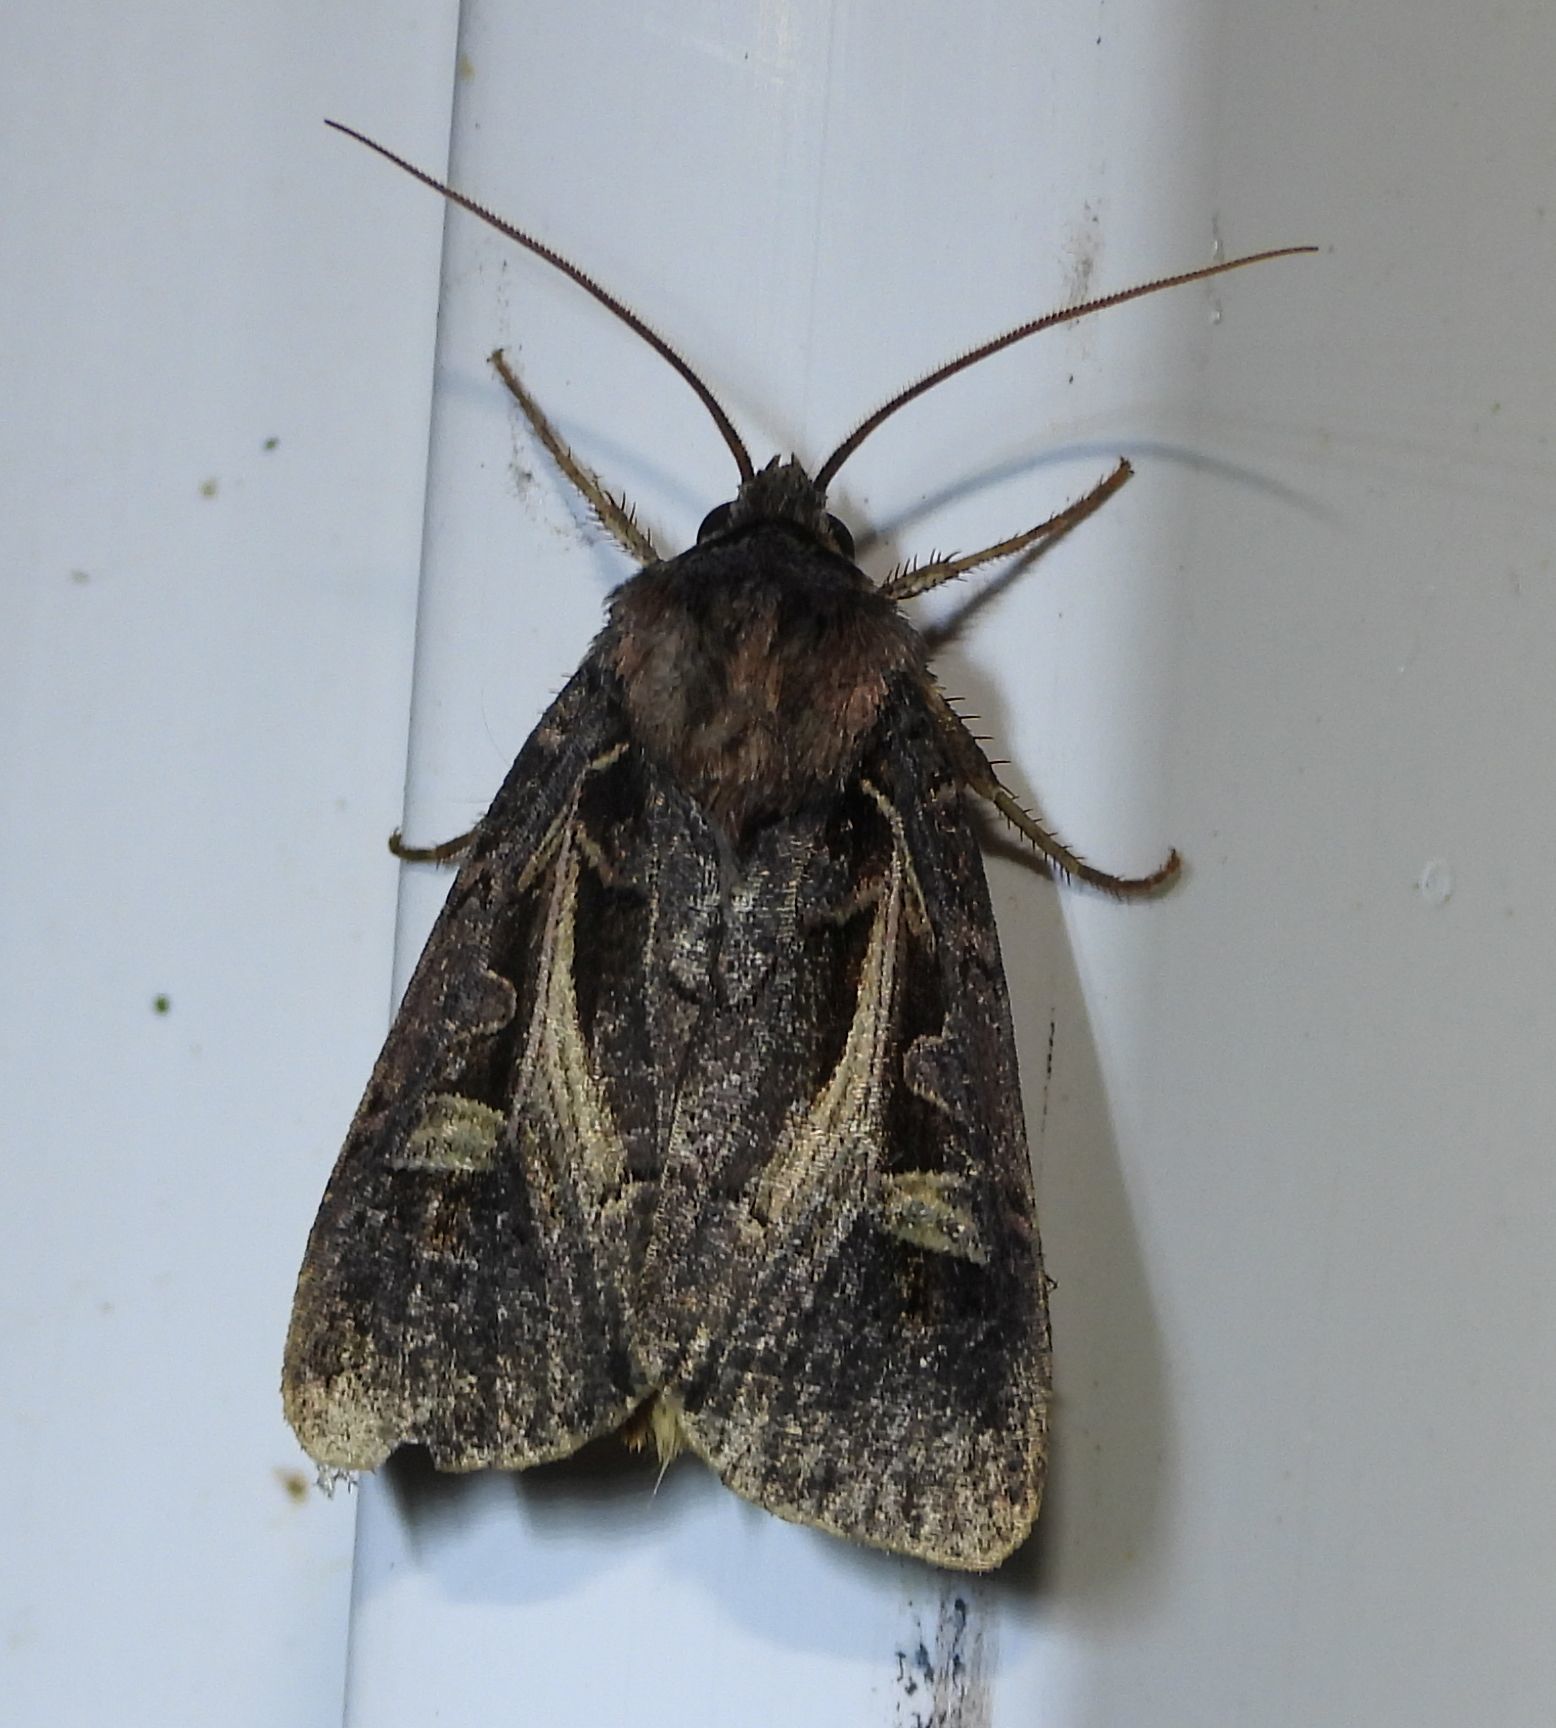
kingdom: Animalia
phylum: Arthropoda
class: Insecta
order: Lepidoptera
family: Noctuidae
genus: Feltia
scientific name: Feltia herilis
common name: Master's dart
